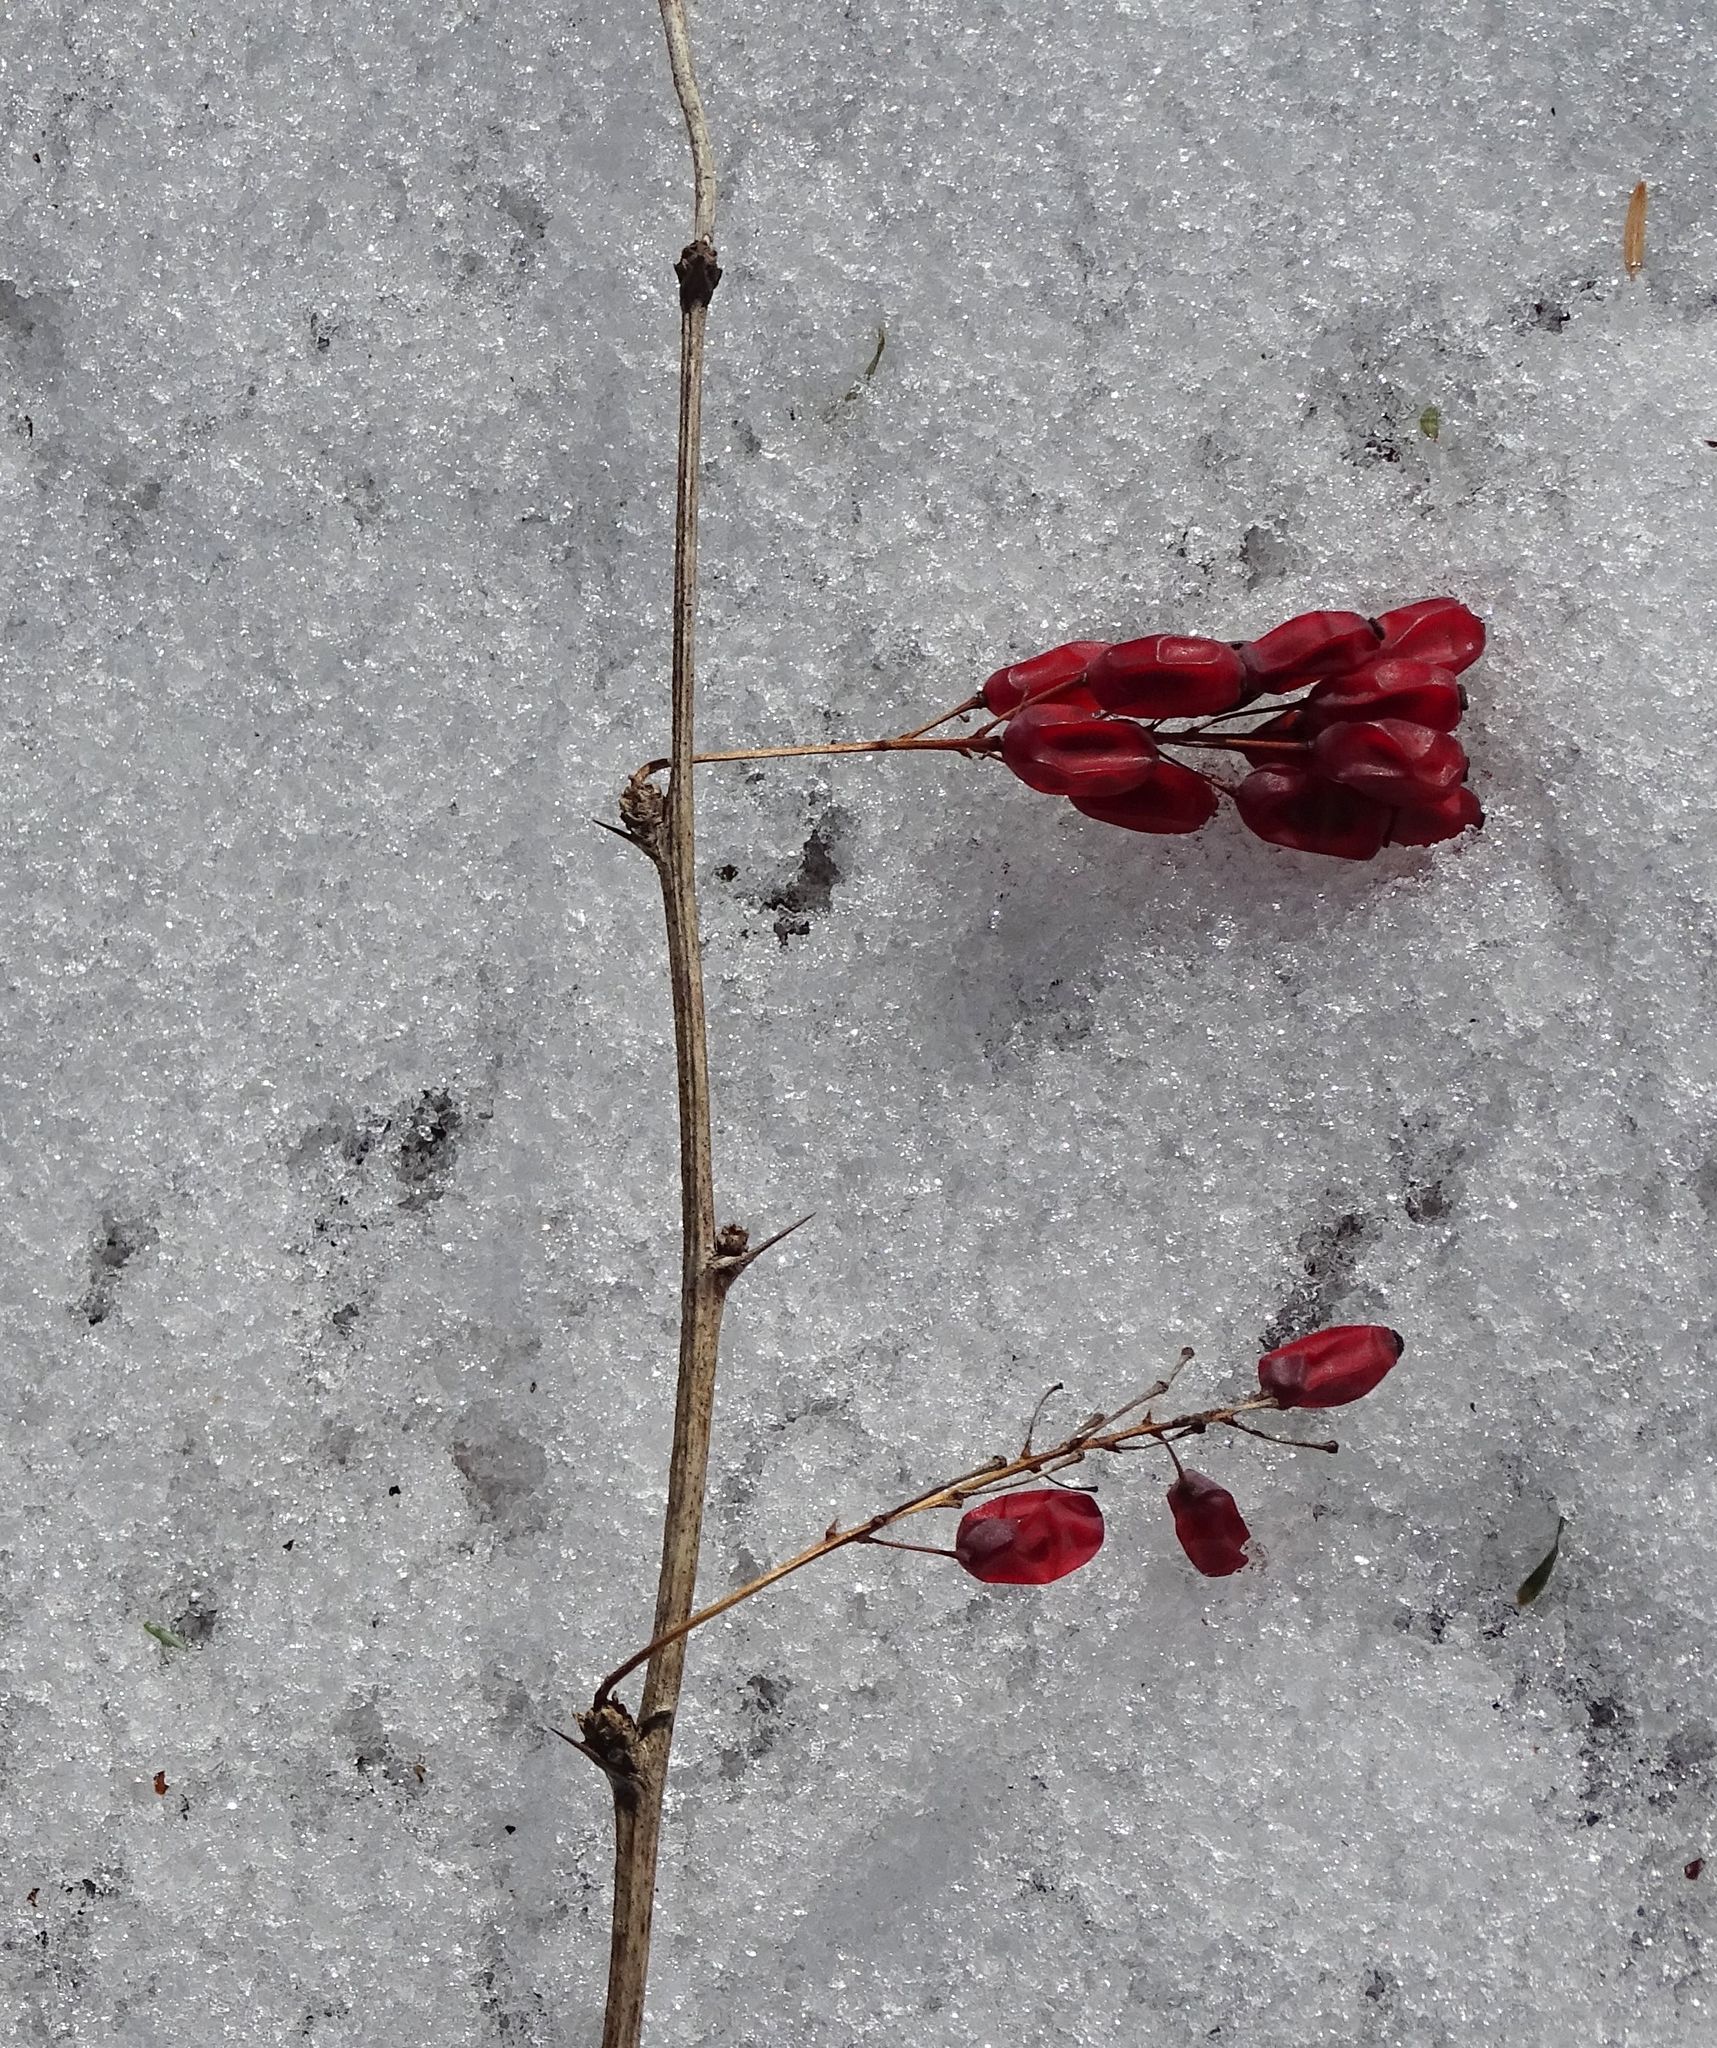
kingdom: Plantae
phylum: Tracheophyta
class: Magnoliopsida
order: Ranunculales
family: Berberidaceae
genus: Berberis
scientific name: Berberis vulgaris
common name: Barberry
